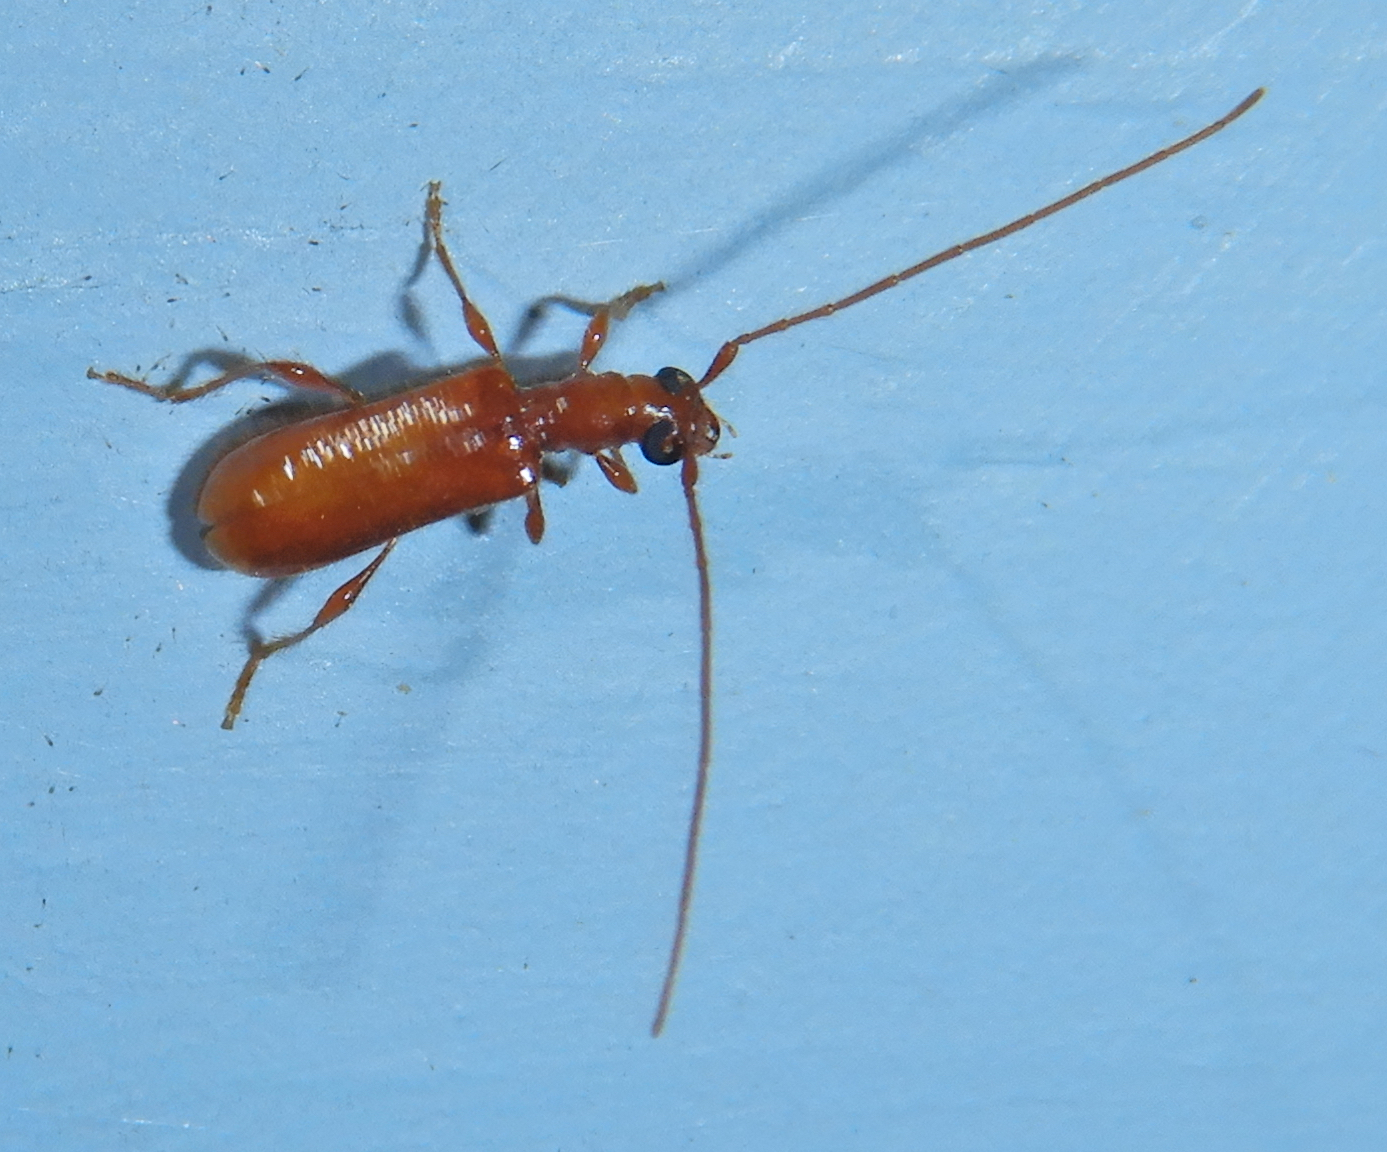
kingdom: Animalia
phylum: Arthropoda
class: Insecta
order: Coleoptera
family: Cerambycidae
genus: Obrium
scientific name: Obrium rufulum
